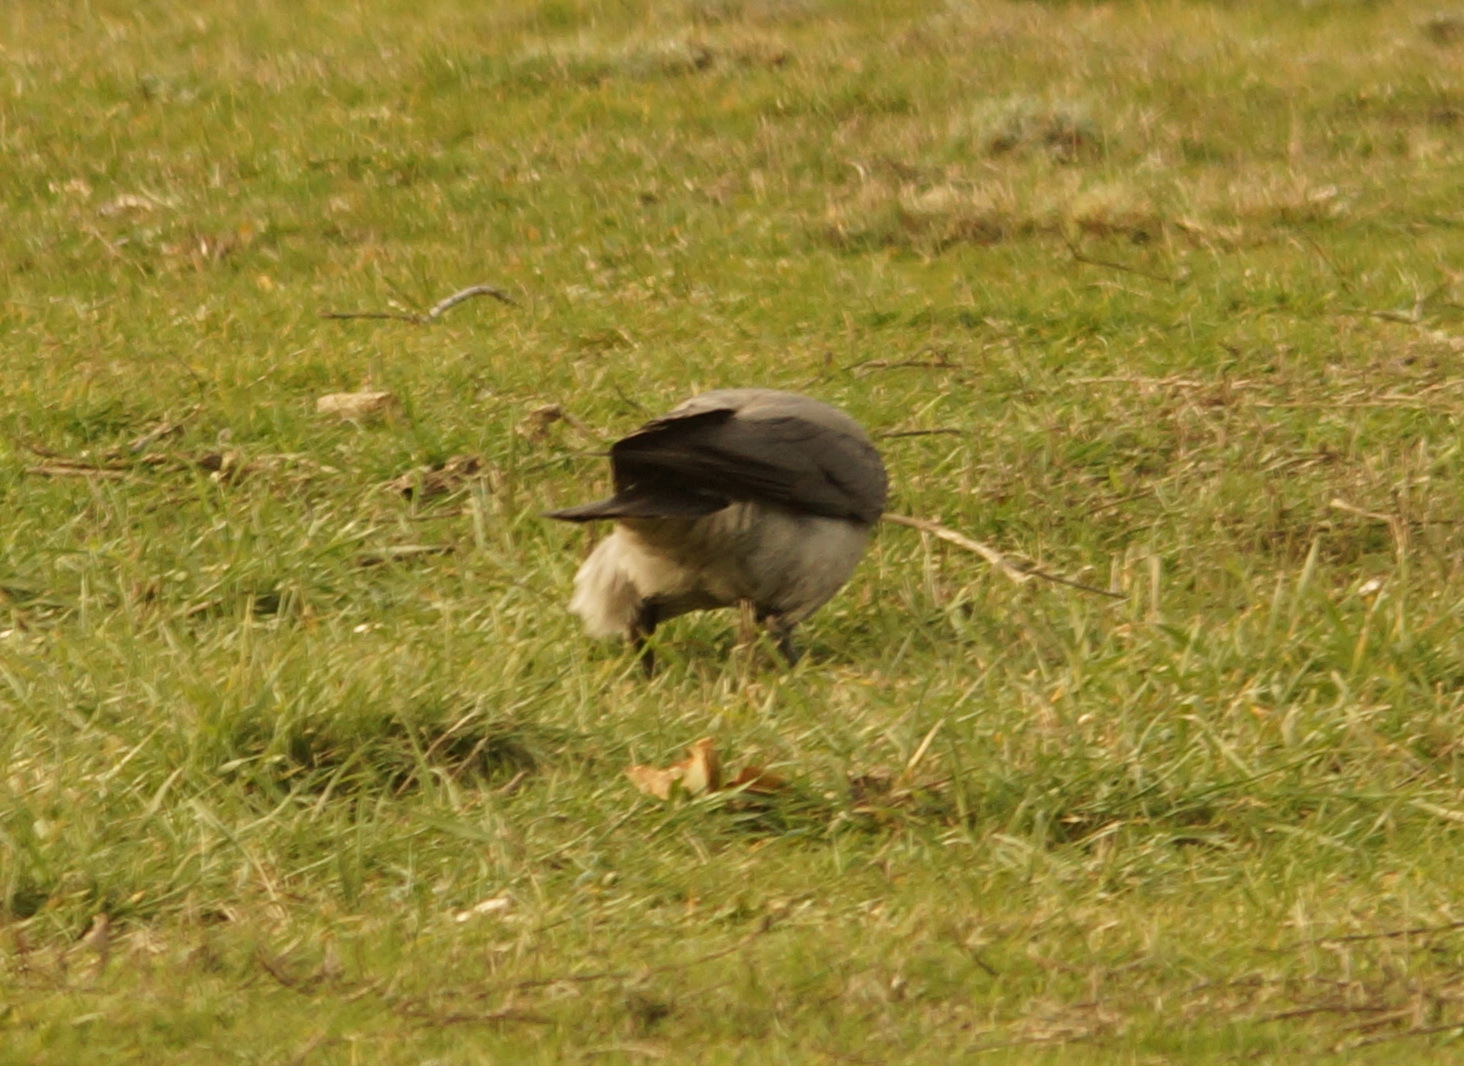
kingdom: Animalia
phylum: Chordata
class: Aves
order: Passeriformes
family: Corvidae
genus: Corvus
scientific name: Corvus cornix
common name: Hooded crow
